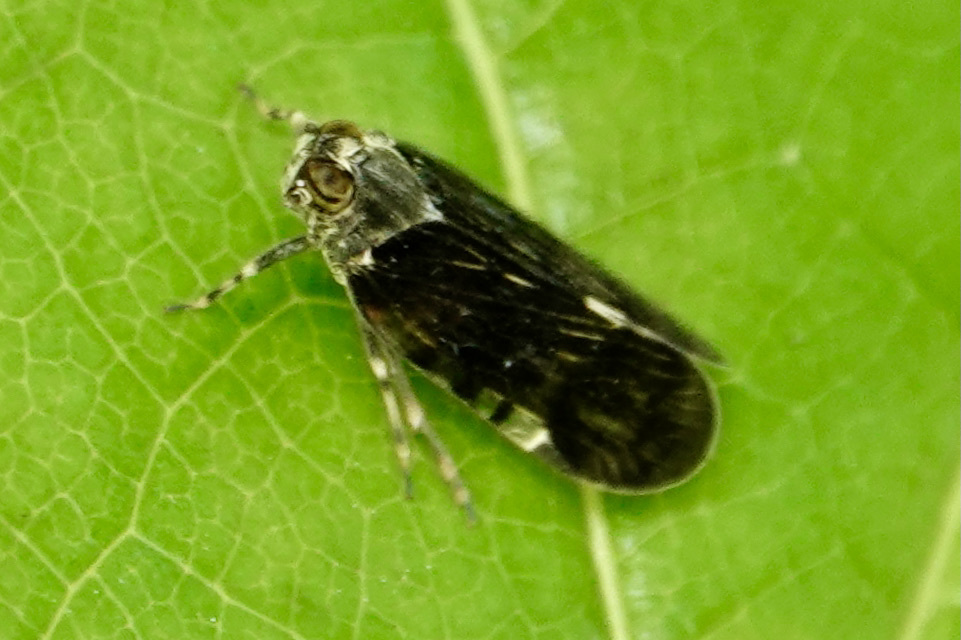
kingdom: Animalia
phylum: Arthropoda
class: Insecta
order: Hemiptera
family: Cixiidae
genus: Melanoliarus
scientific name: Melanoliarus placitus
